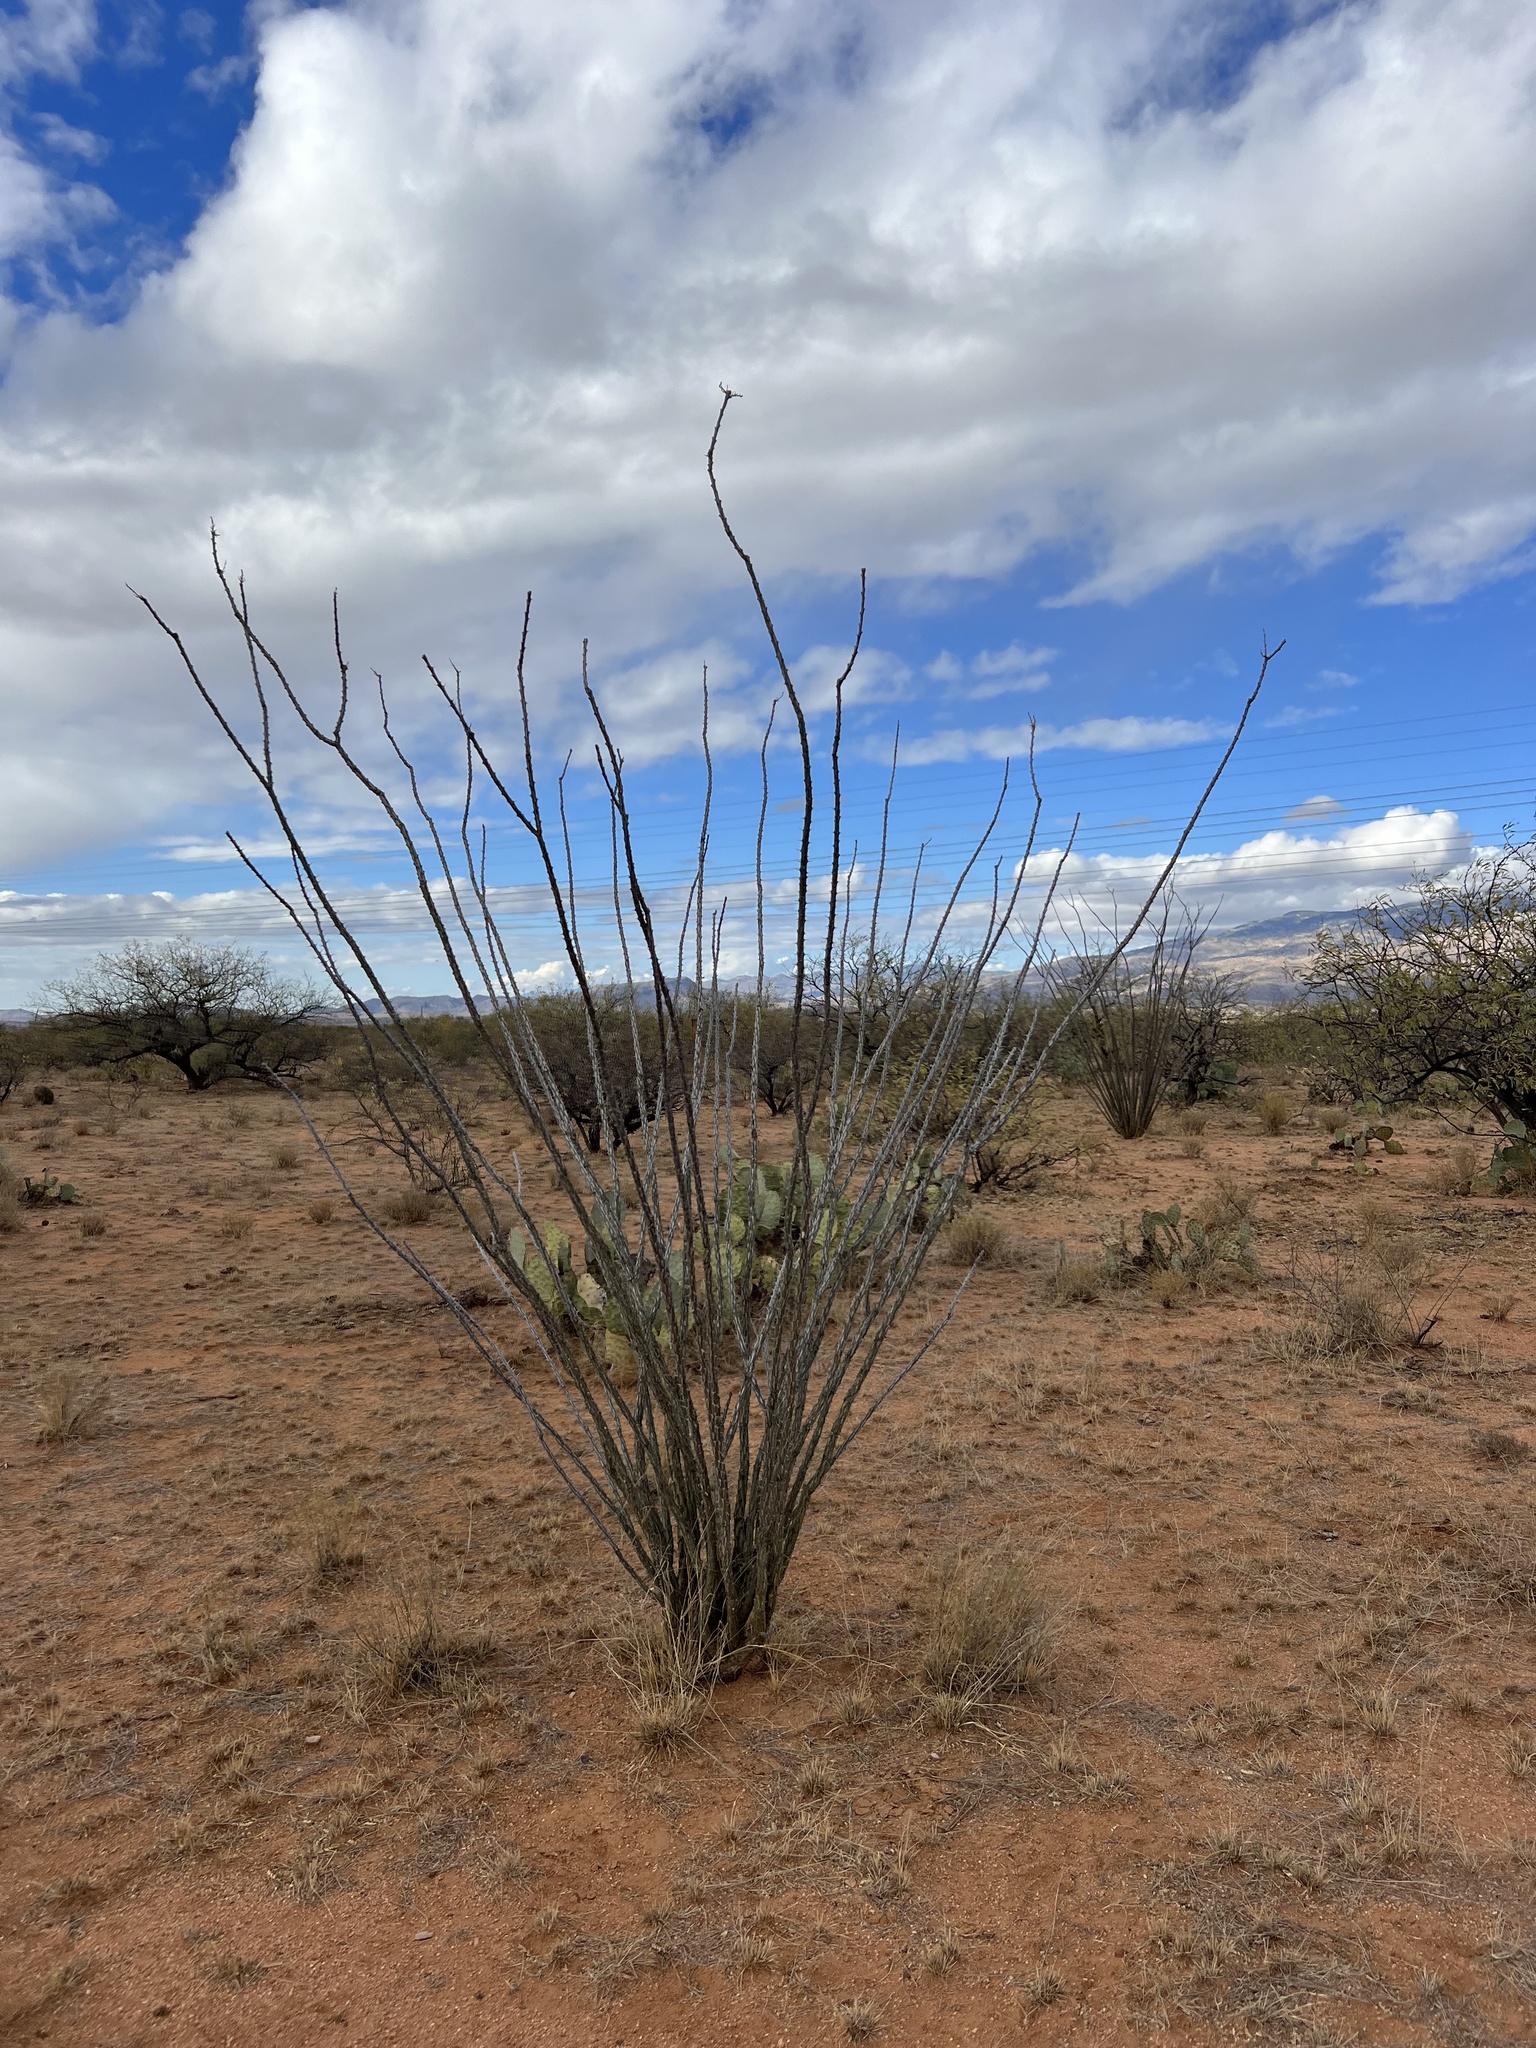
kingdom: Plantae
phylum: Tracheophyta
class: Magnoliopsida
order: Ericales
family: Fouquieriaceae
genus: Fouquieria
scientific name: Fouquieria splendens
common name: Vine-cactus
